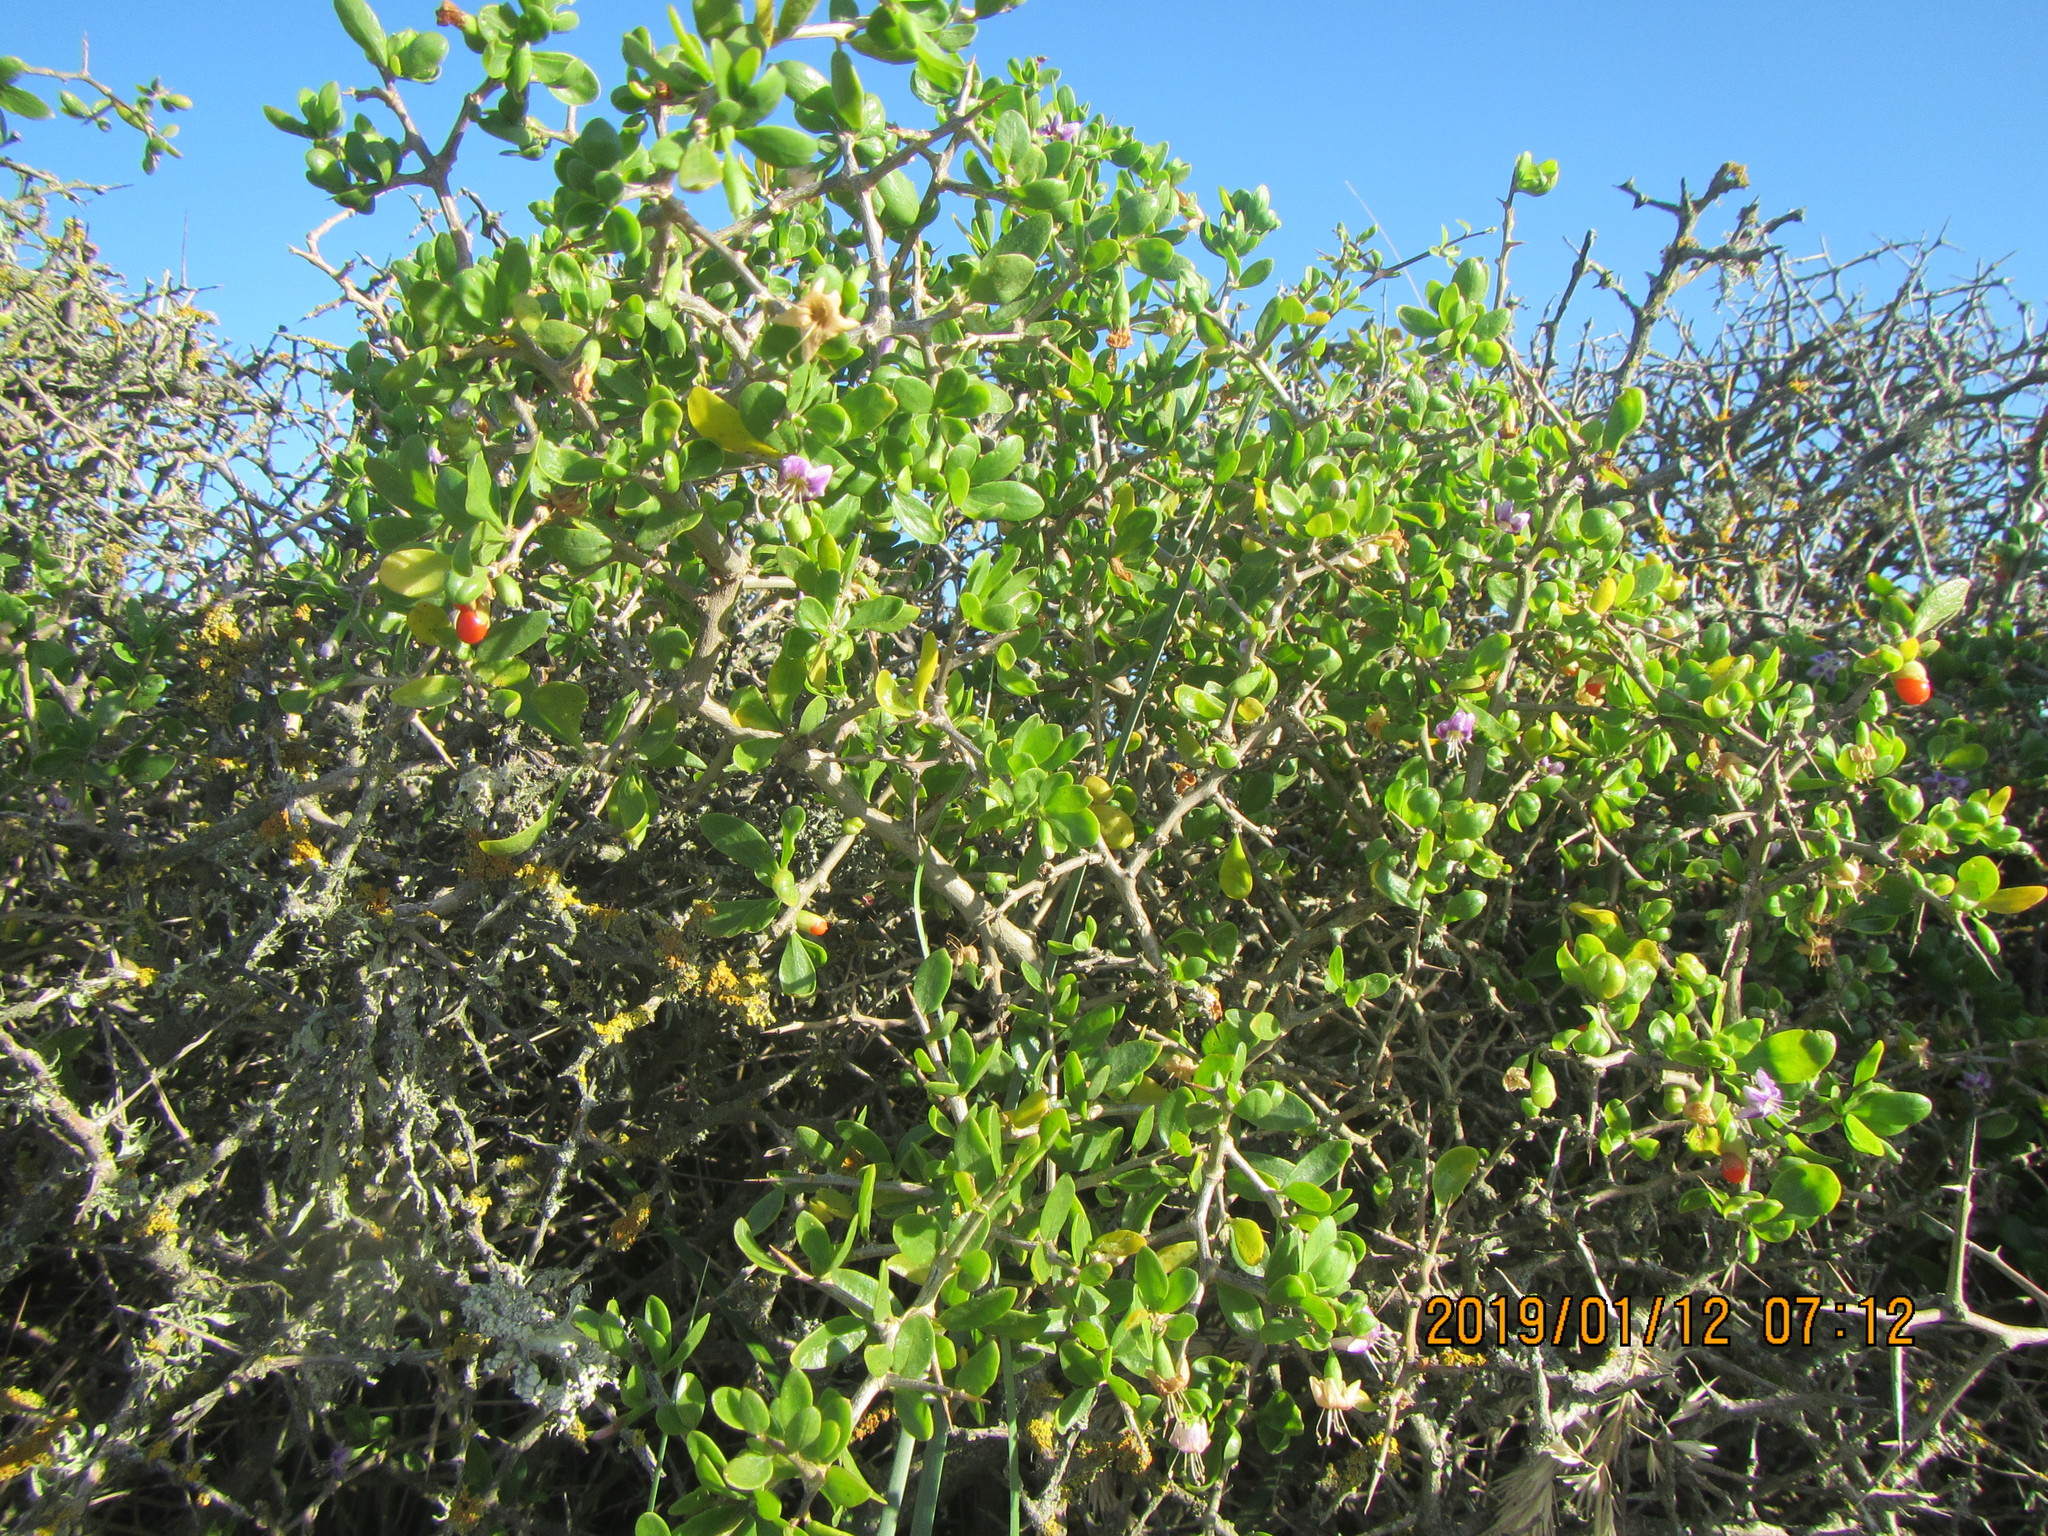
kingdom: Plantae
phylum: Tracheophyta
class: Magnoliopsida
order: Solanales
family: Solanaceae
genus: Lycium
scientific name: Lycium ferocissimum
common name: African boxthorn
